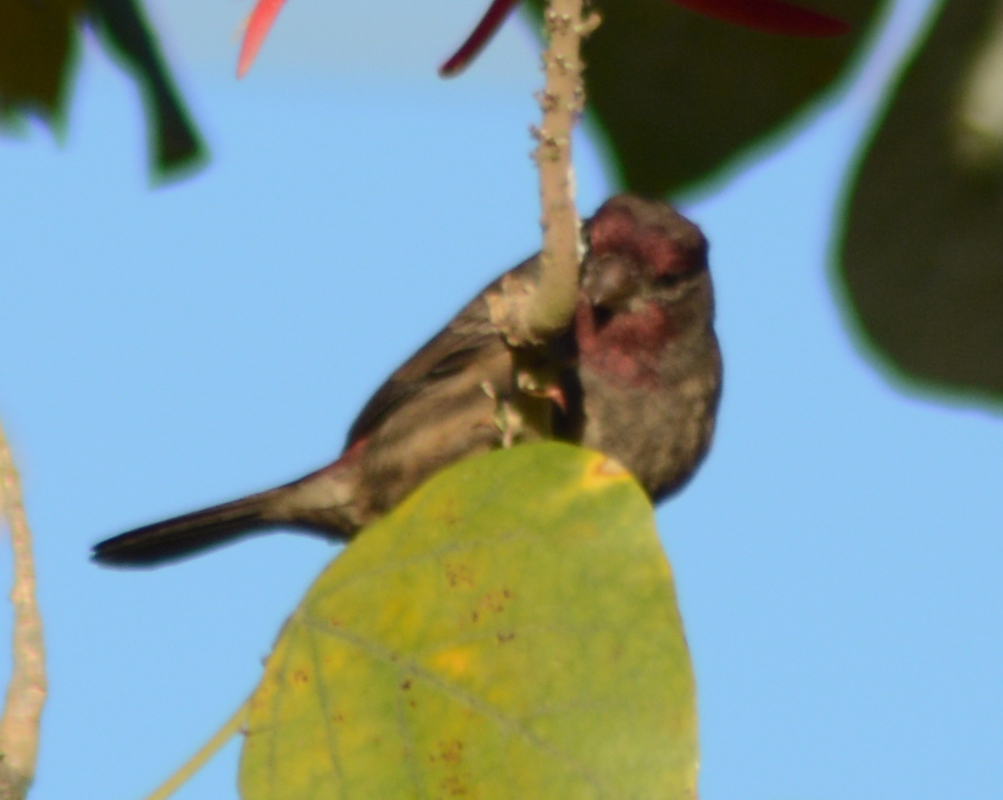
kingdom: Animalia
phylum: Chordata
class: Aves
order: Passeriformes
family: Fringillidae
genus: Haemorhous
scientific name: Haemorhous mexicanus
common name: House finch
